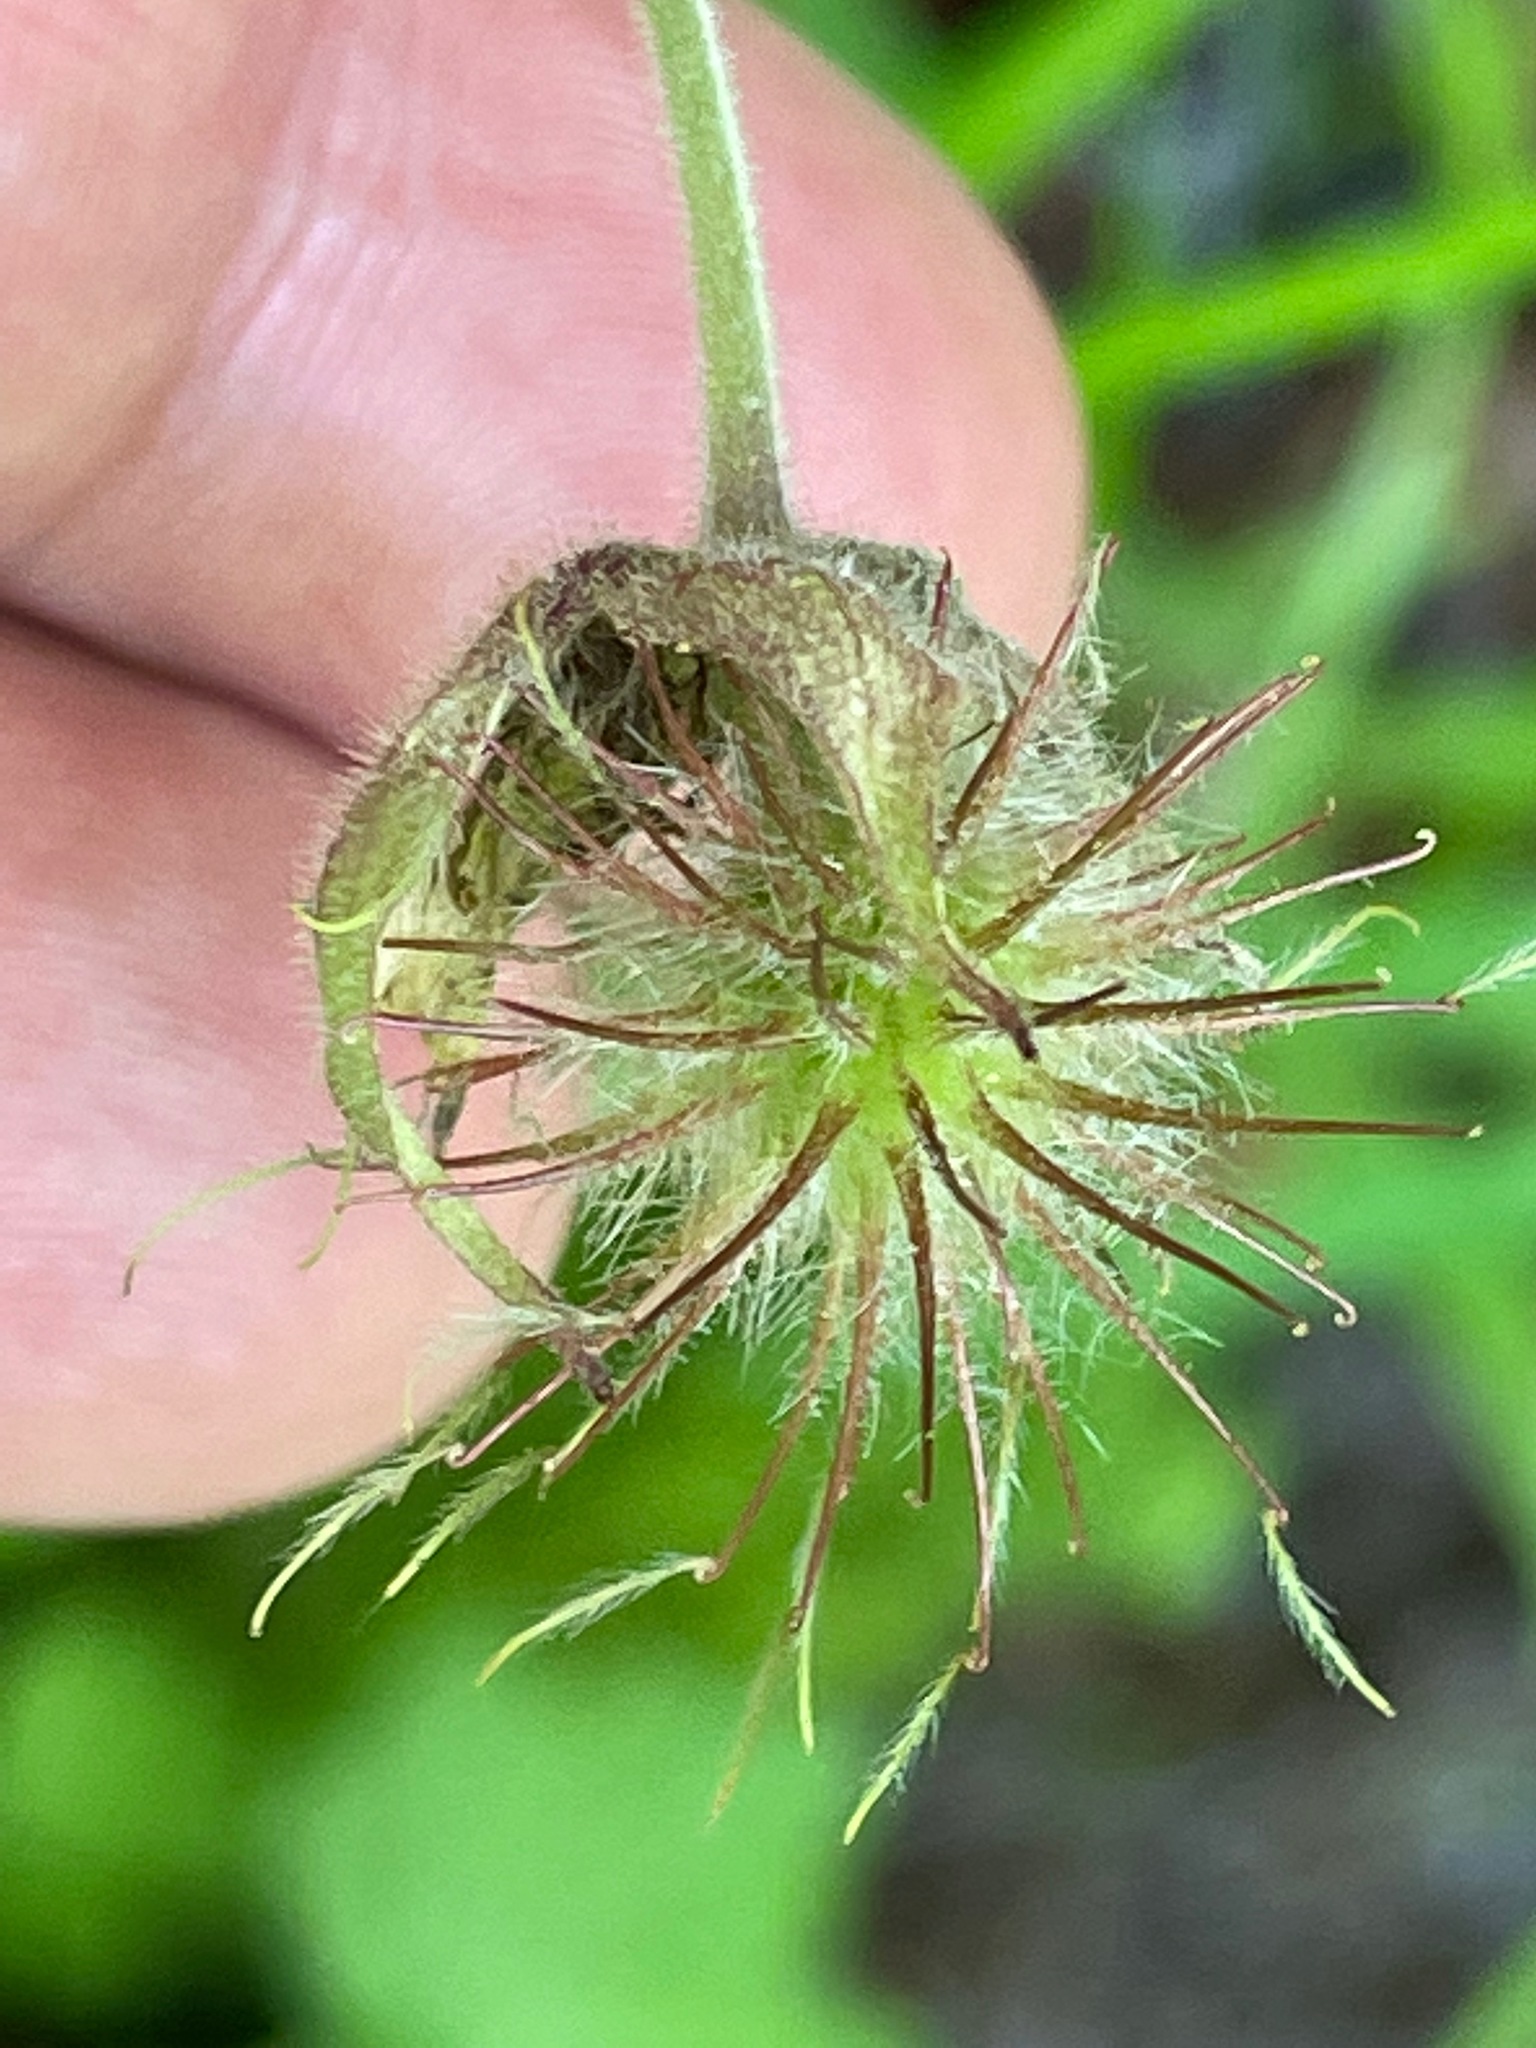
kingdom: Plantae
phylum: Tracheophyta
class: Magnoliopsida
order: Rosales
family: Rosaceae
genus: Geum
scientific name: Geum rivale
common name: Water avens
